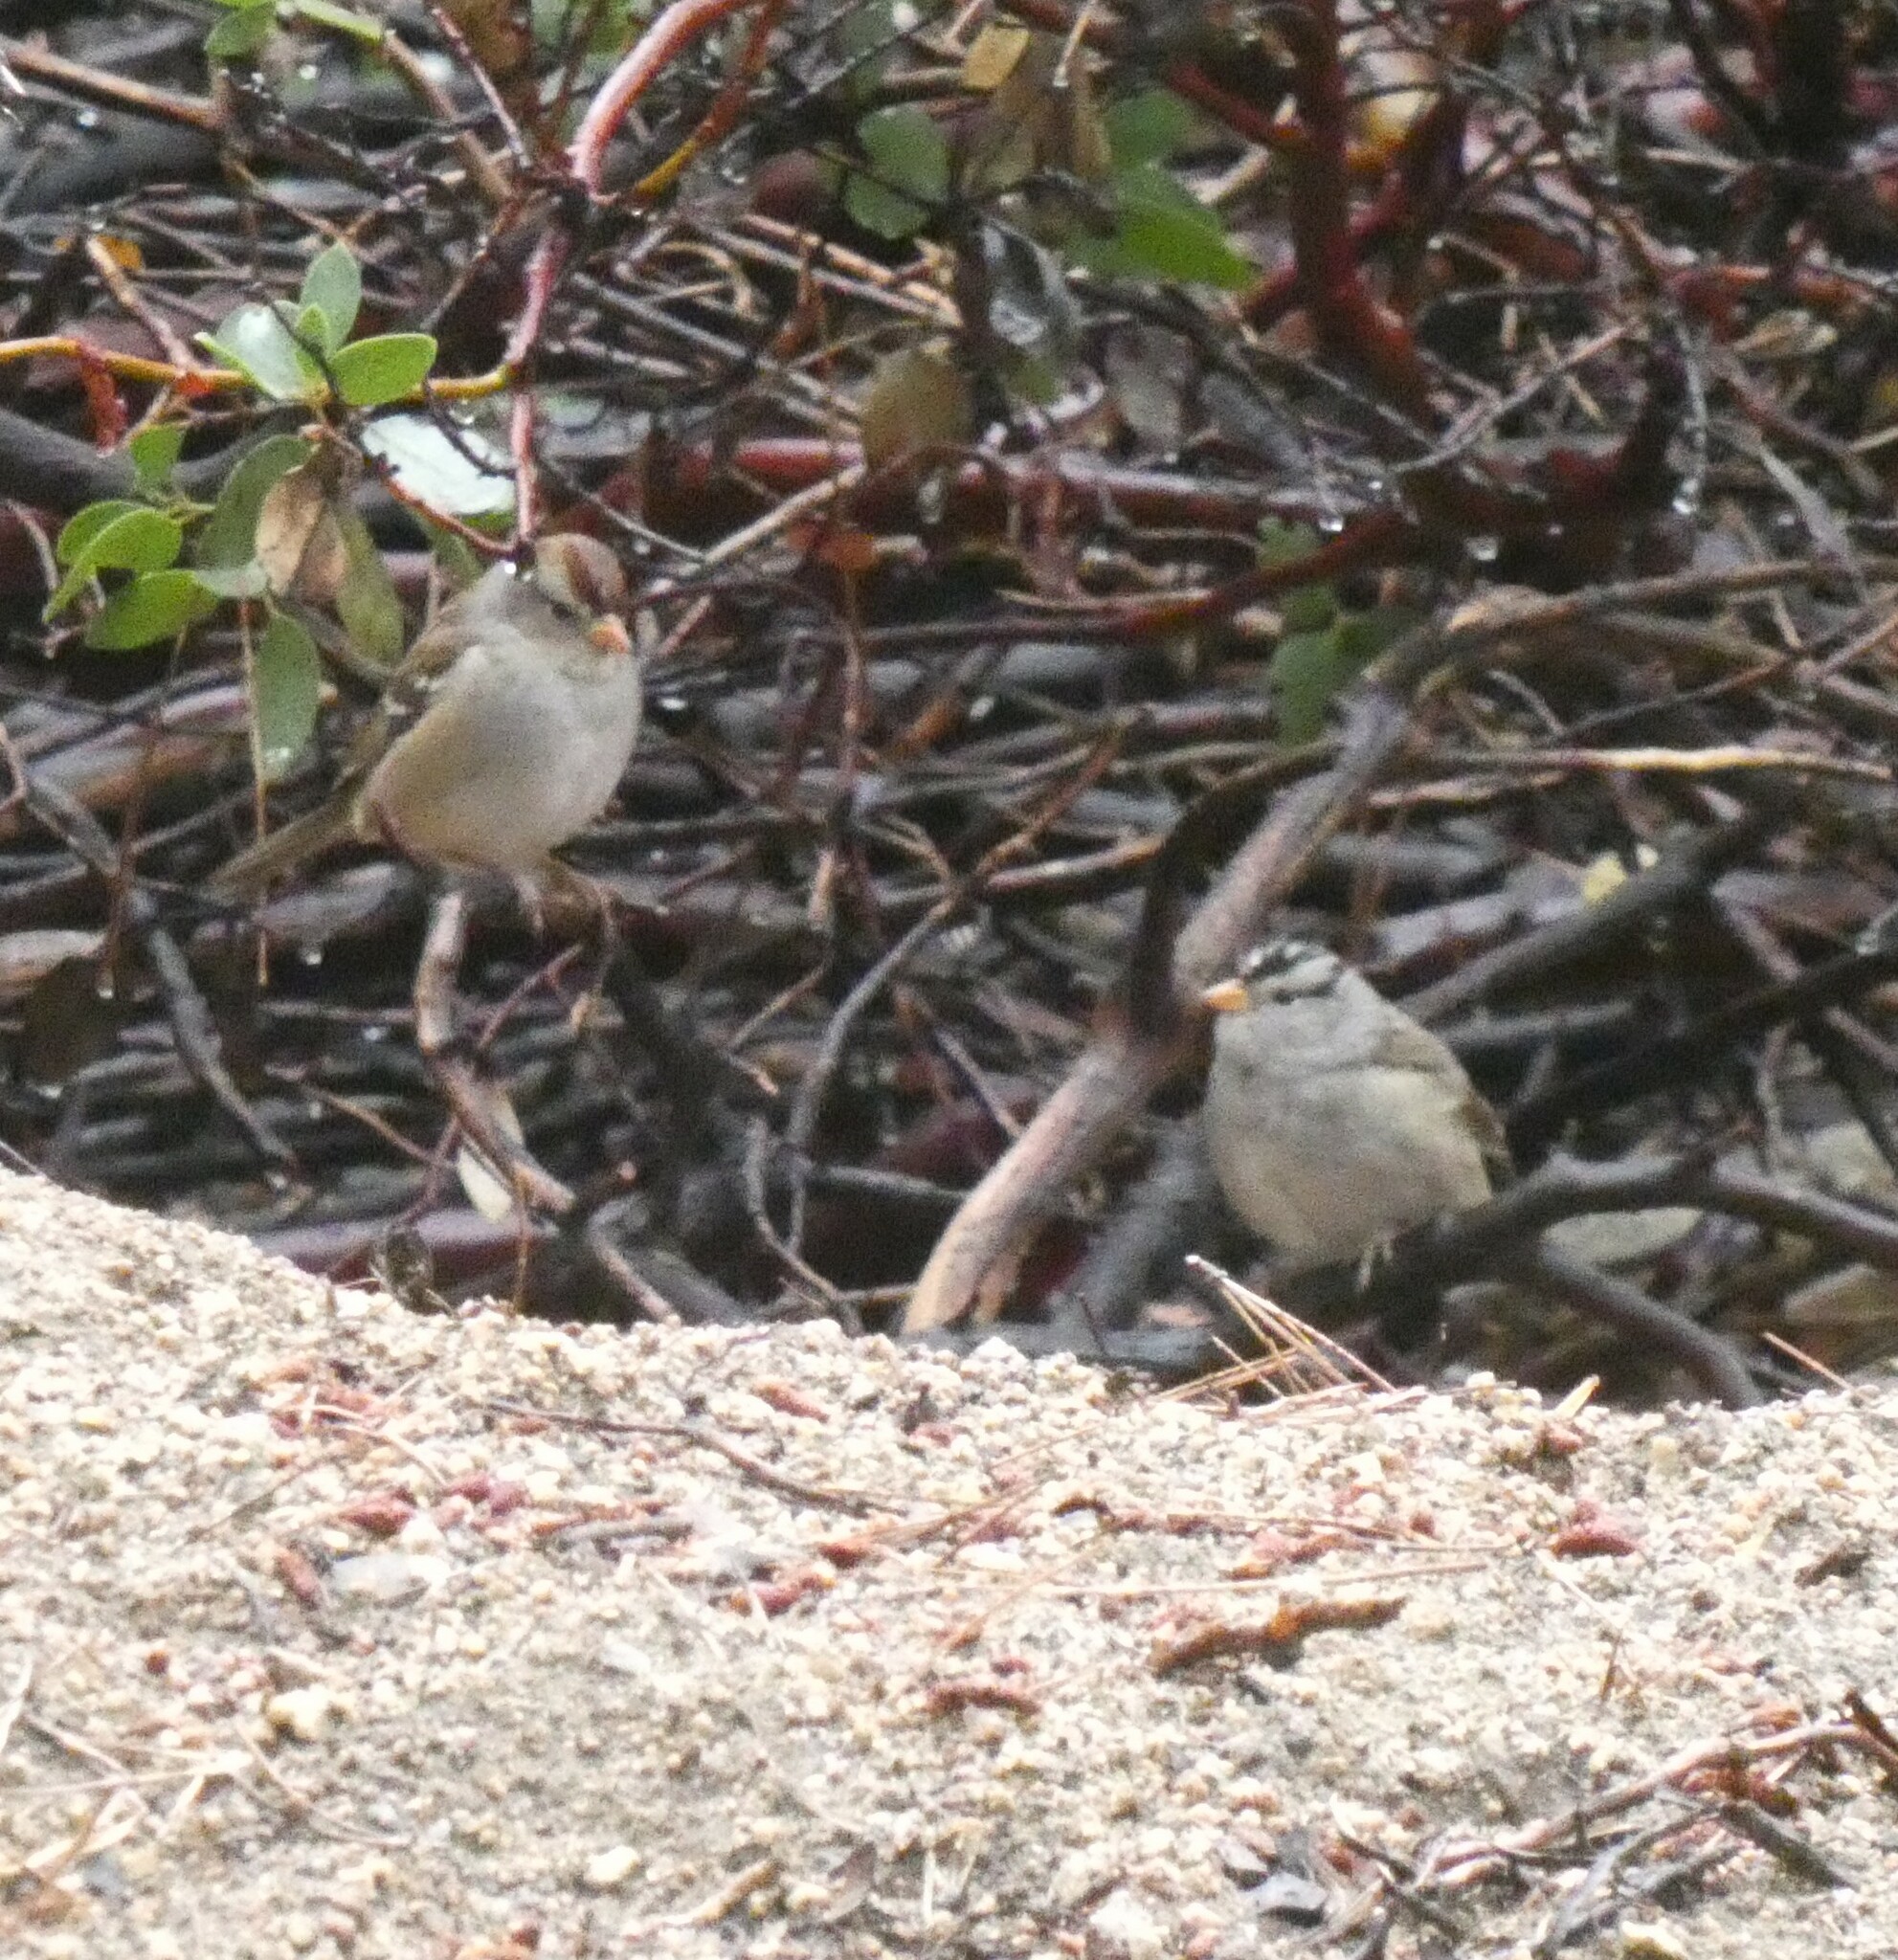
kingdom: Animalia
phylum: Chordata
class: Aves
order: Passeriformes
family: Passerellidae
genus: Zonotrichia
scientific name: Zonotrichia leucophrys
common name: White-crowned sparrow
